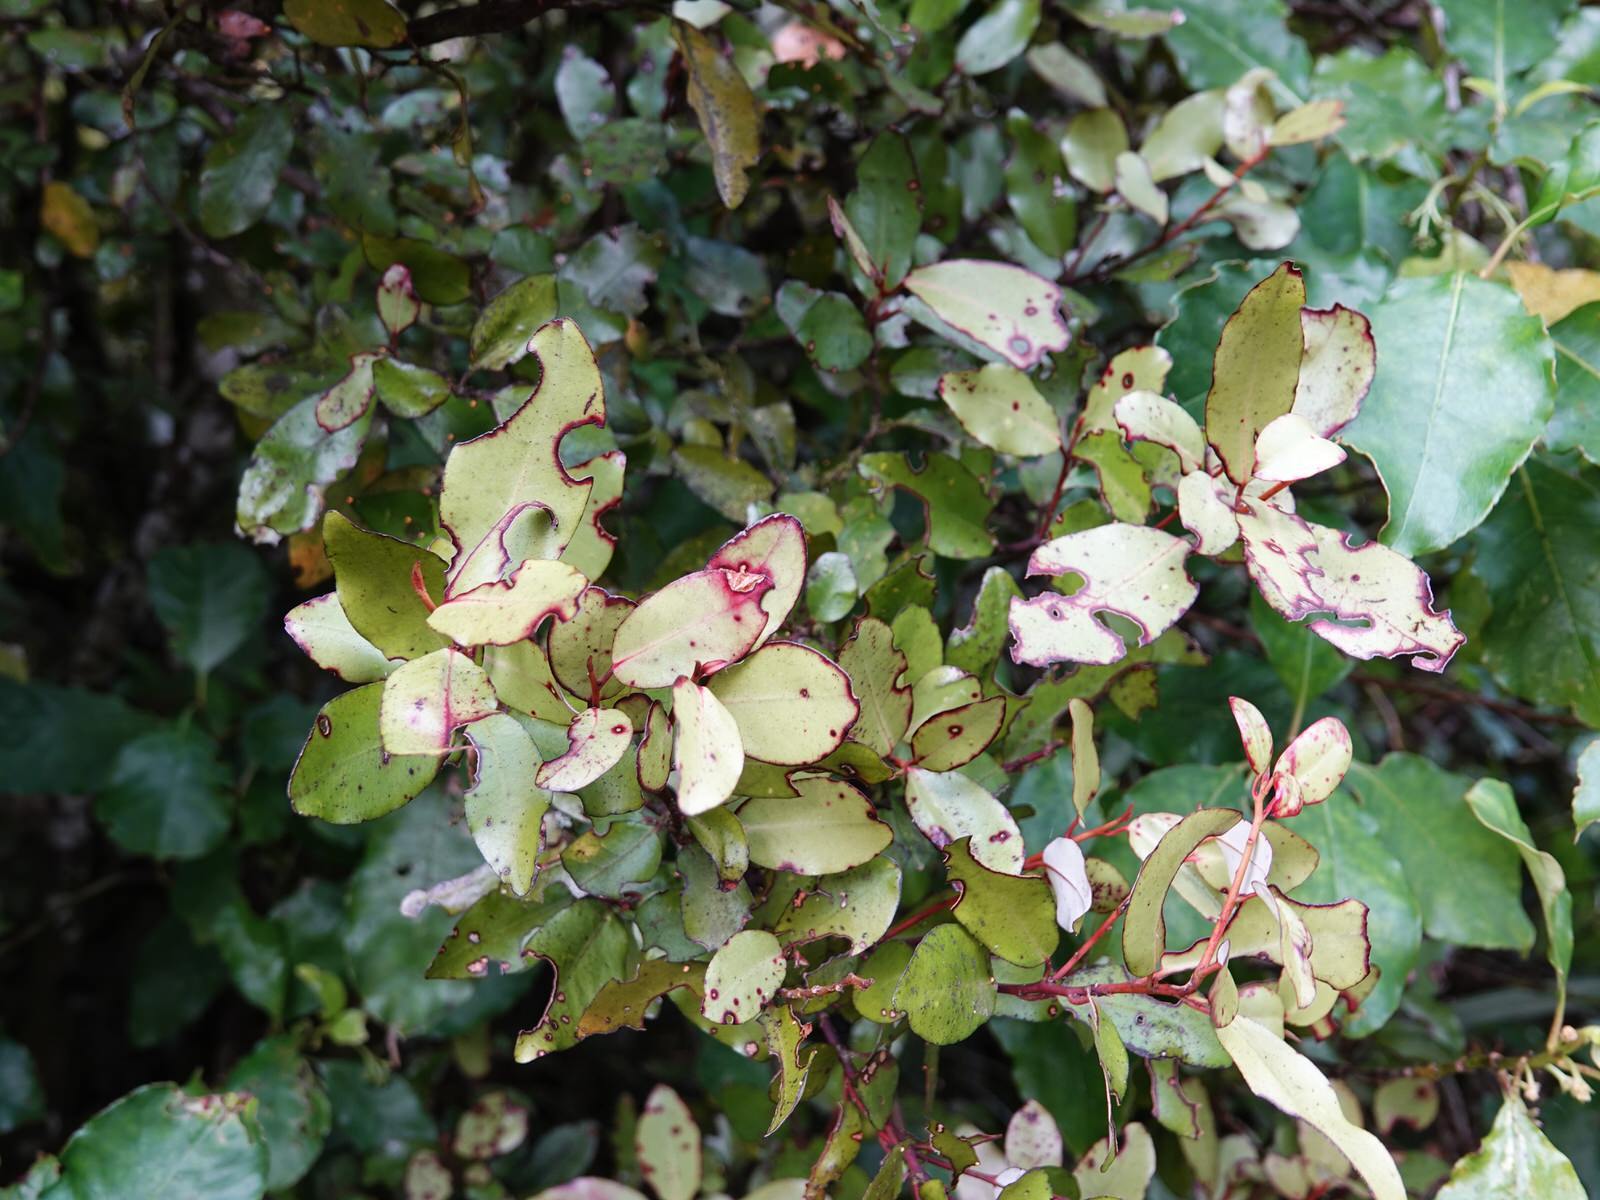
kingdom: Plantae
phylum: Tracheophyta
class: Magnoliopsida
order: Canellales
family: Winteraceae
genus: Pseudowintera
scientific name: Pseudowintera colorata
